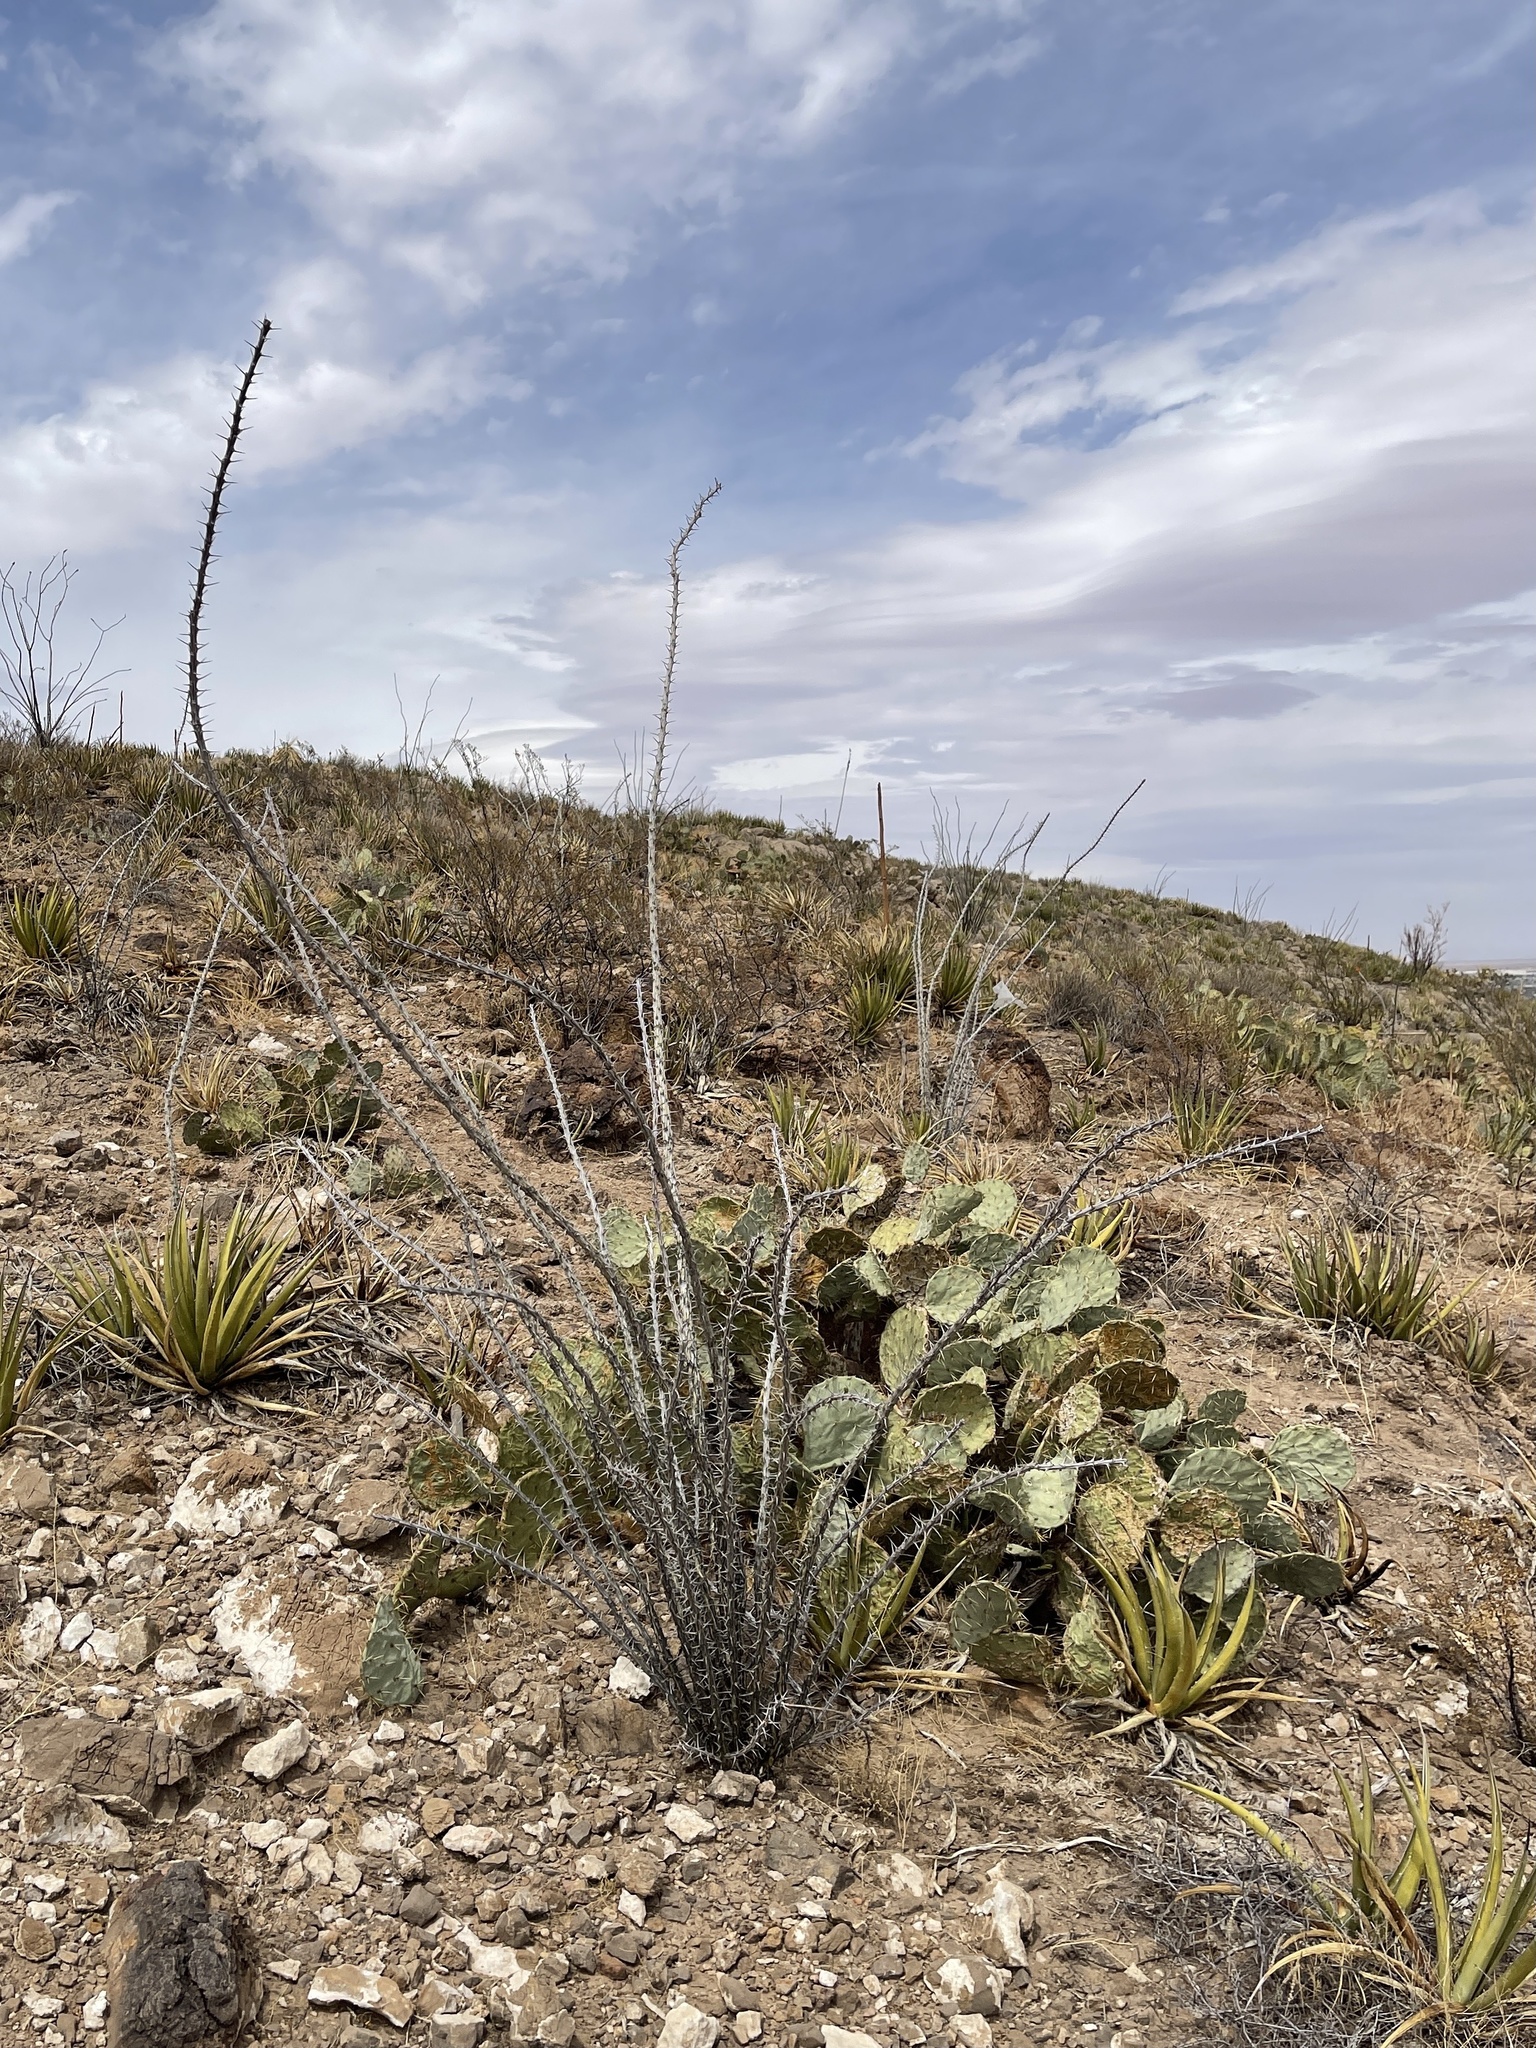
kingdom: Plantae
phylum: Tracheophyta
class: Liliopsida
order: Asparagales
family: Asparagaceae
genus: Agave
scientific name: Agave lechuguilla
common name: Lecheguilla agave
